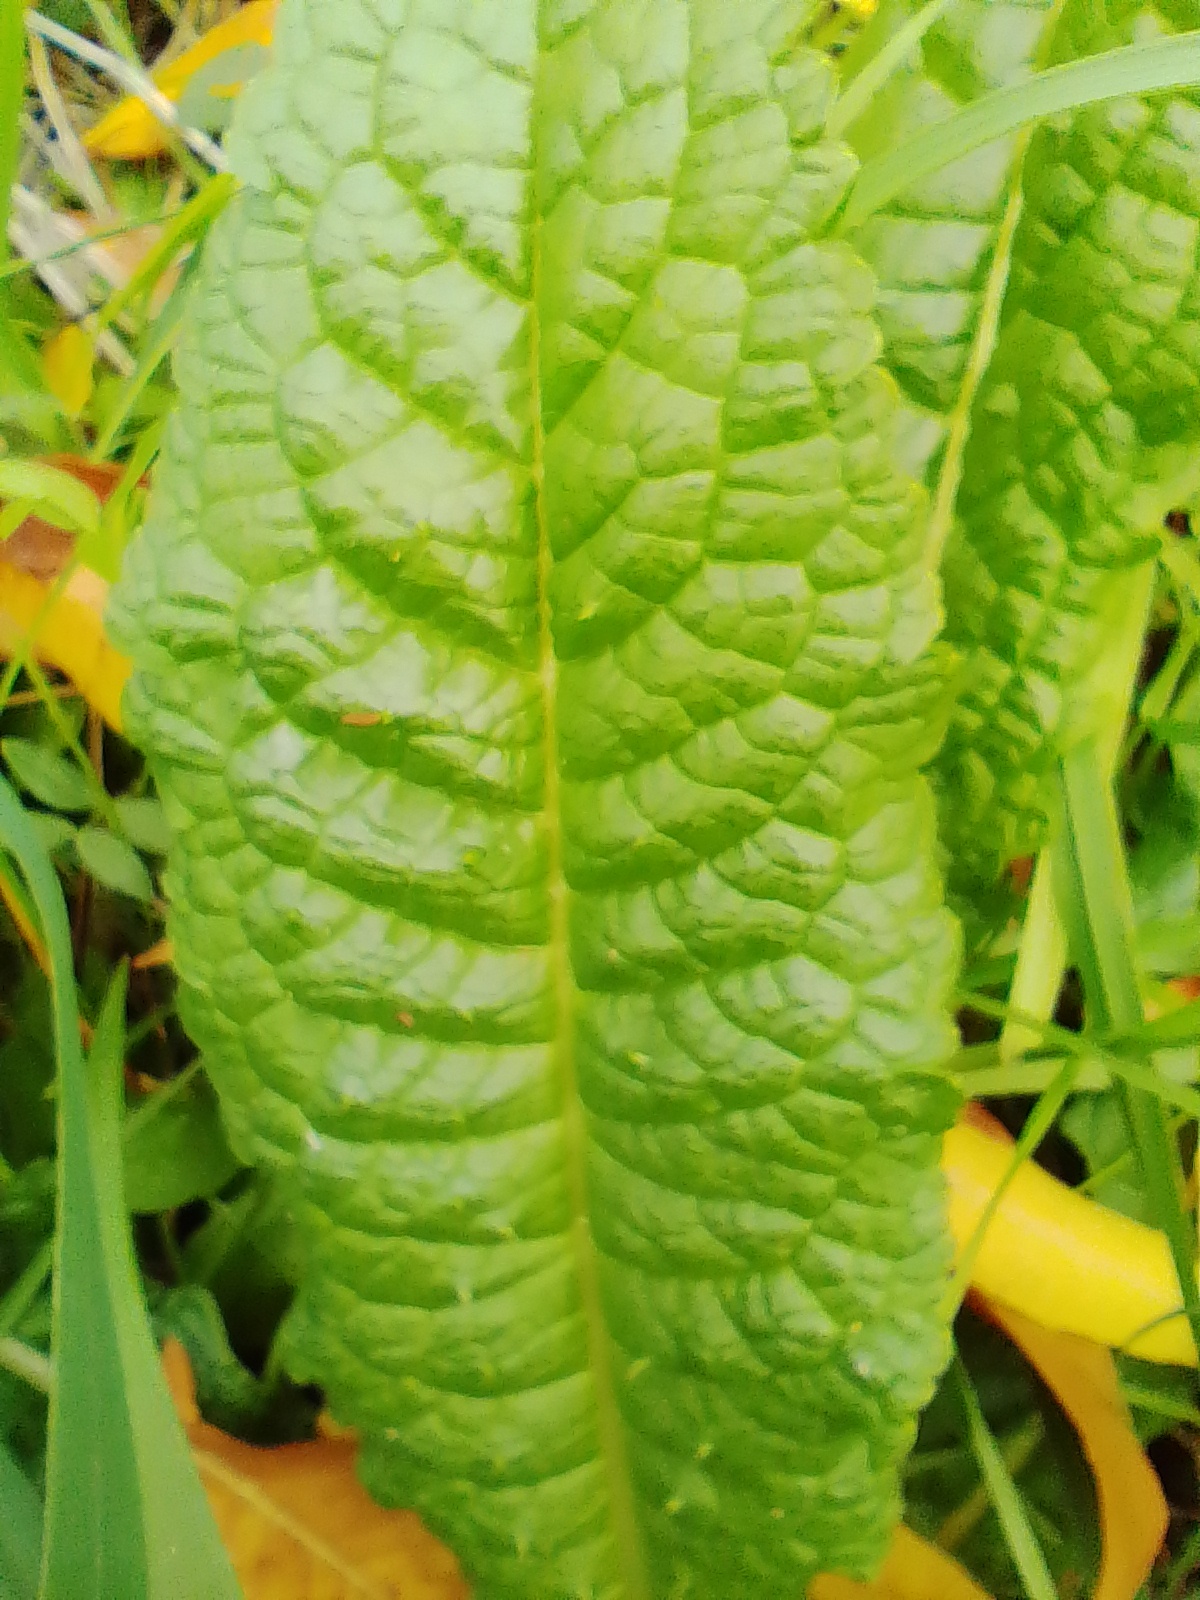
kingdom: Plantae
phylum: Tracheophyta
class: Magnoliopsida
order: Dipsacales
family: Caprifoliaceae
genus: Dipsacus
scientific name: Dipsacus fullonum
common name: Teasel
